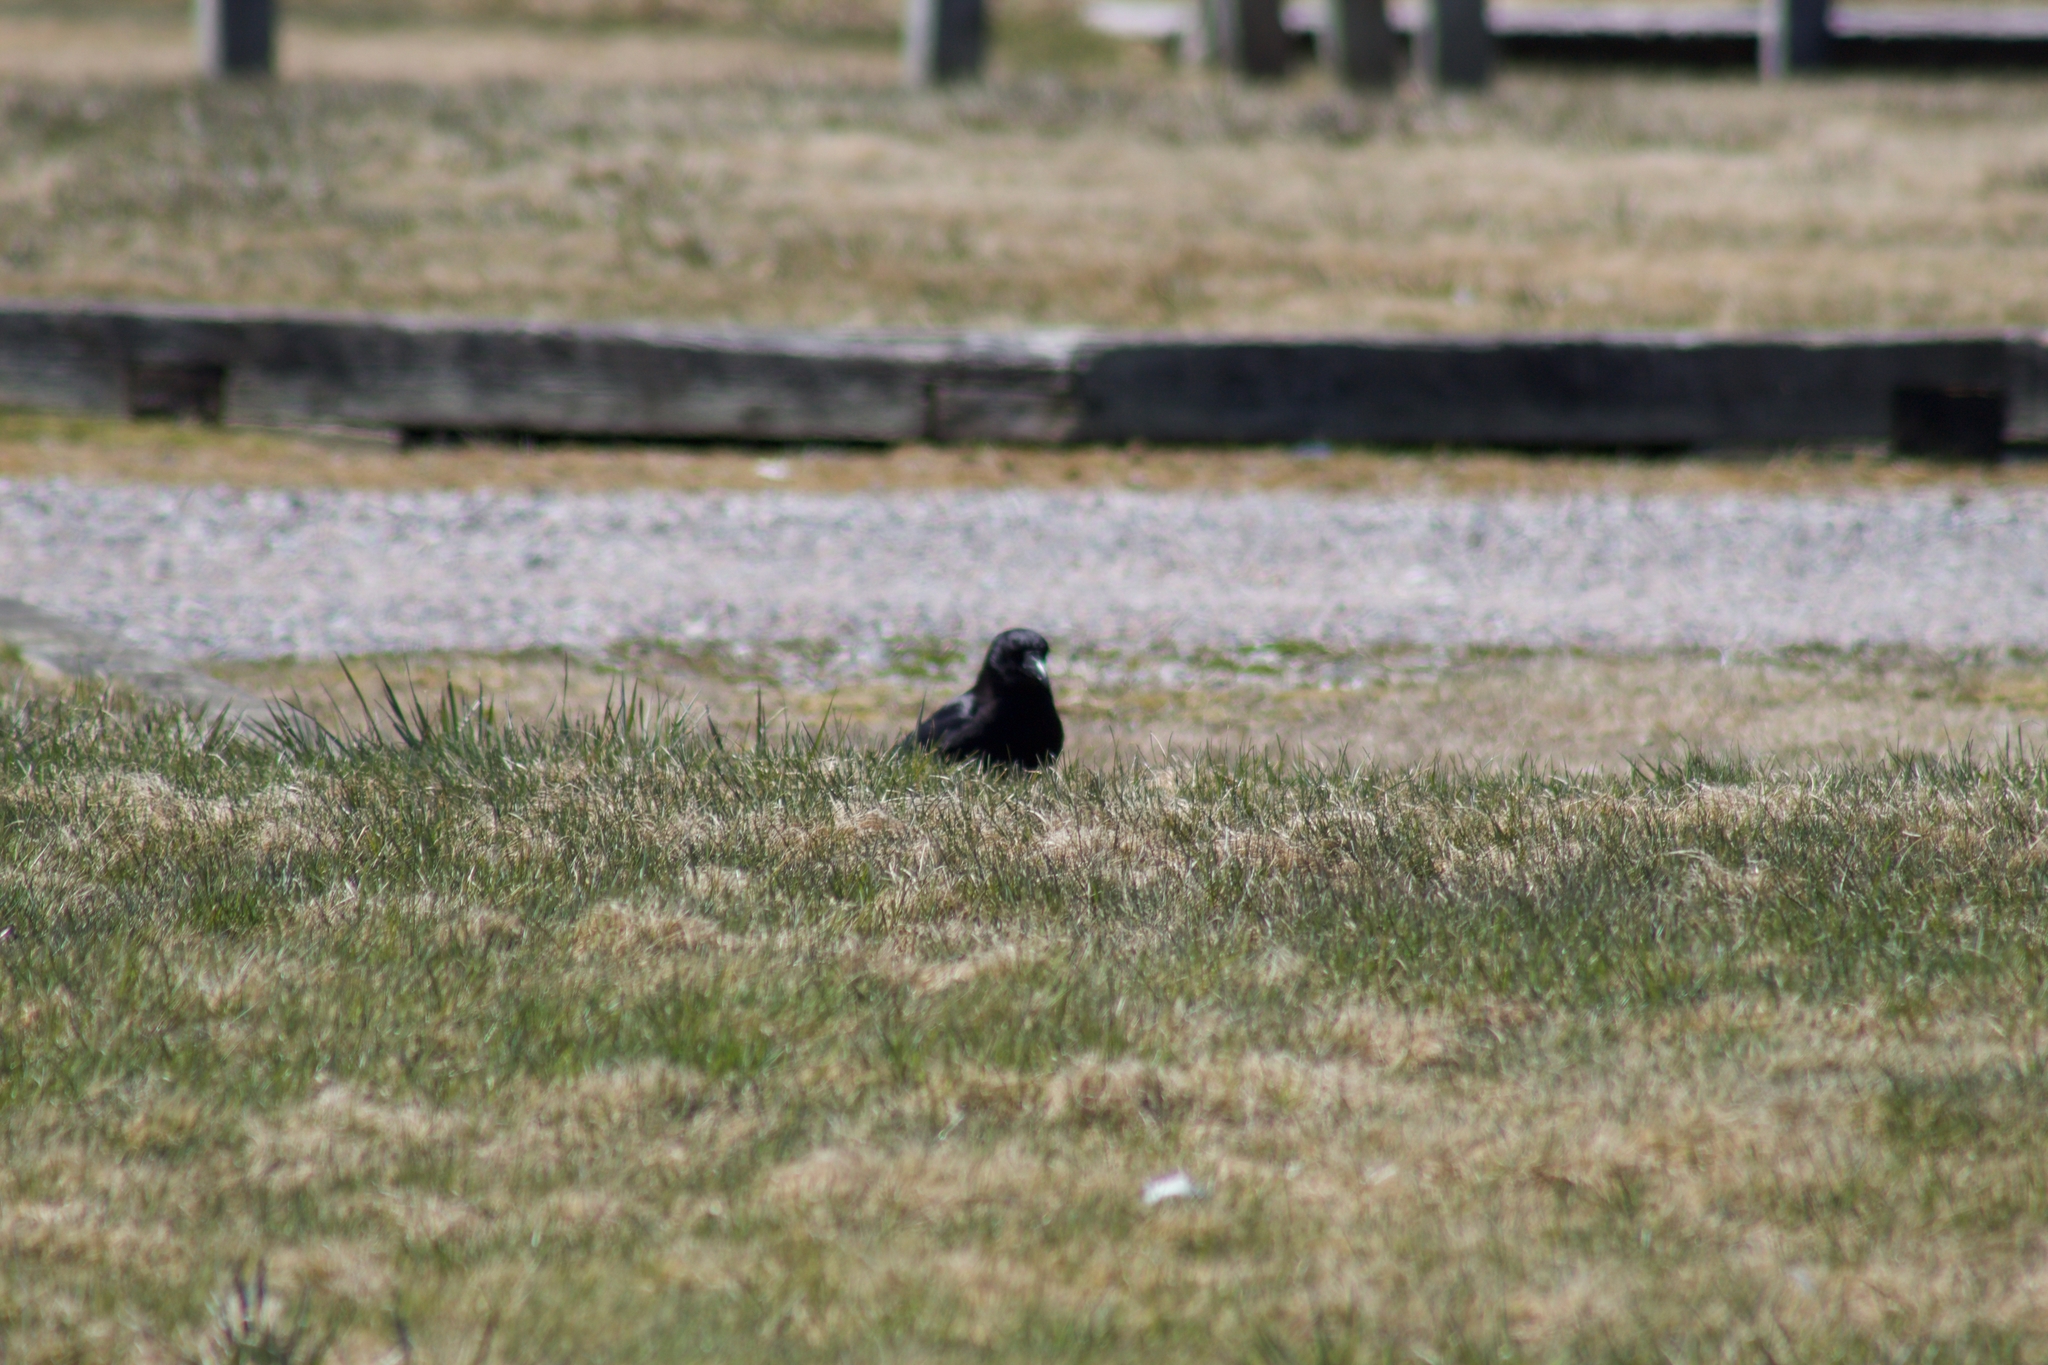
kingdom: Animalia
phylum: Chordata
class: Aves
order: Passeriformes
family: Corvidae
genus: Corvus
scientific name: Corvus brachyrhynchos
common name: American crow
